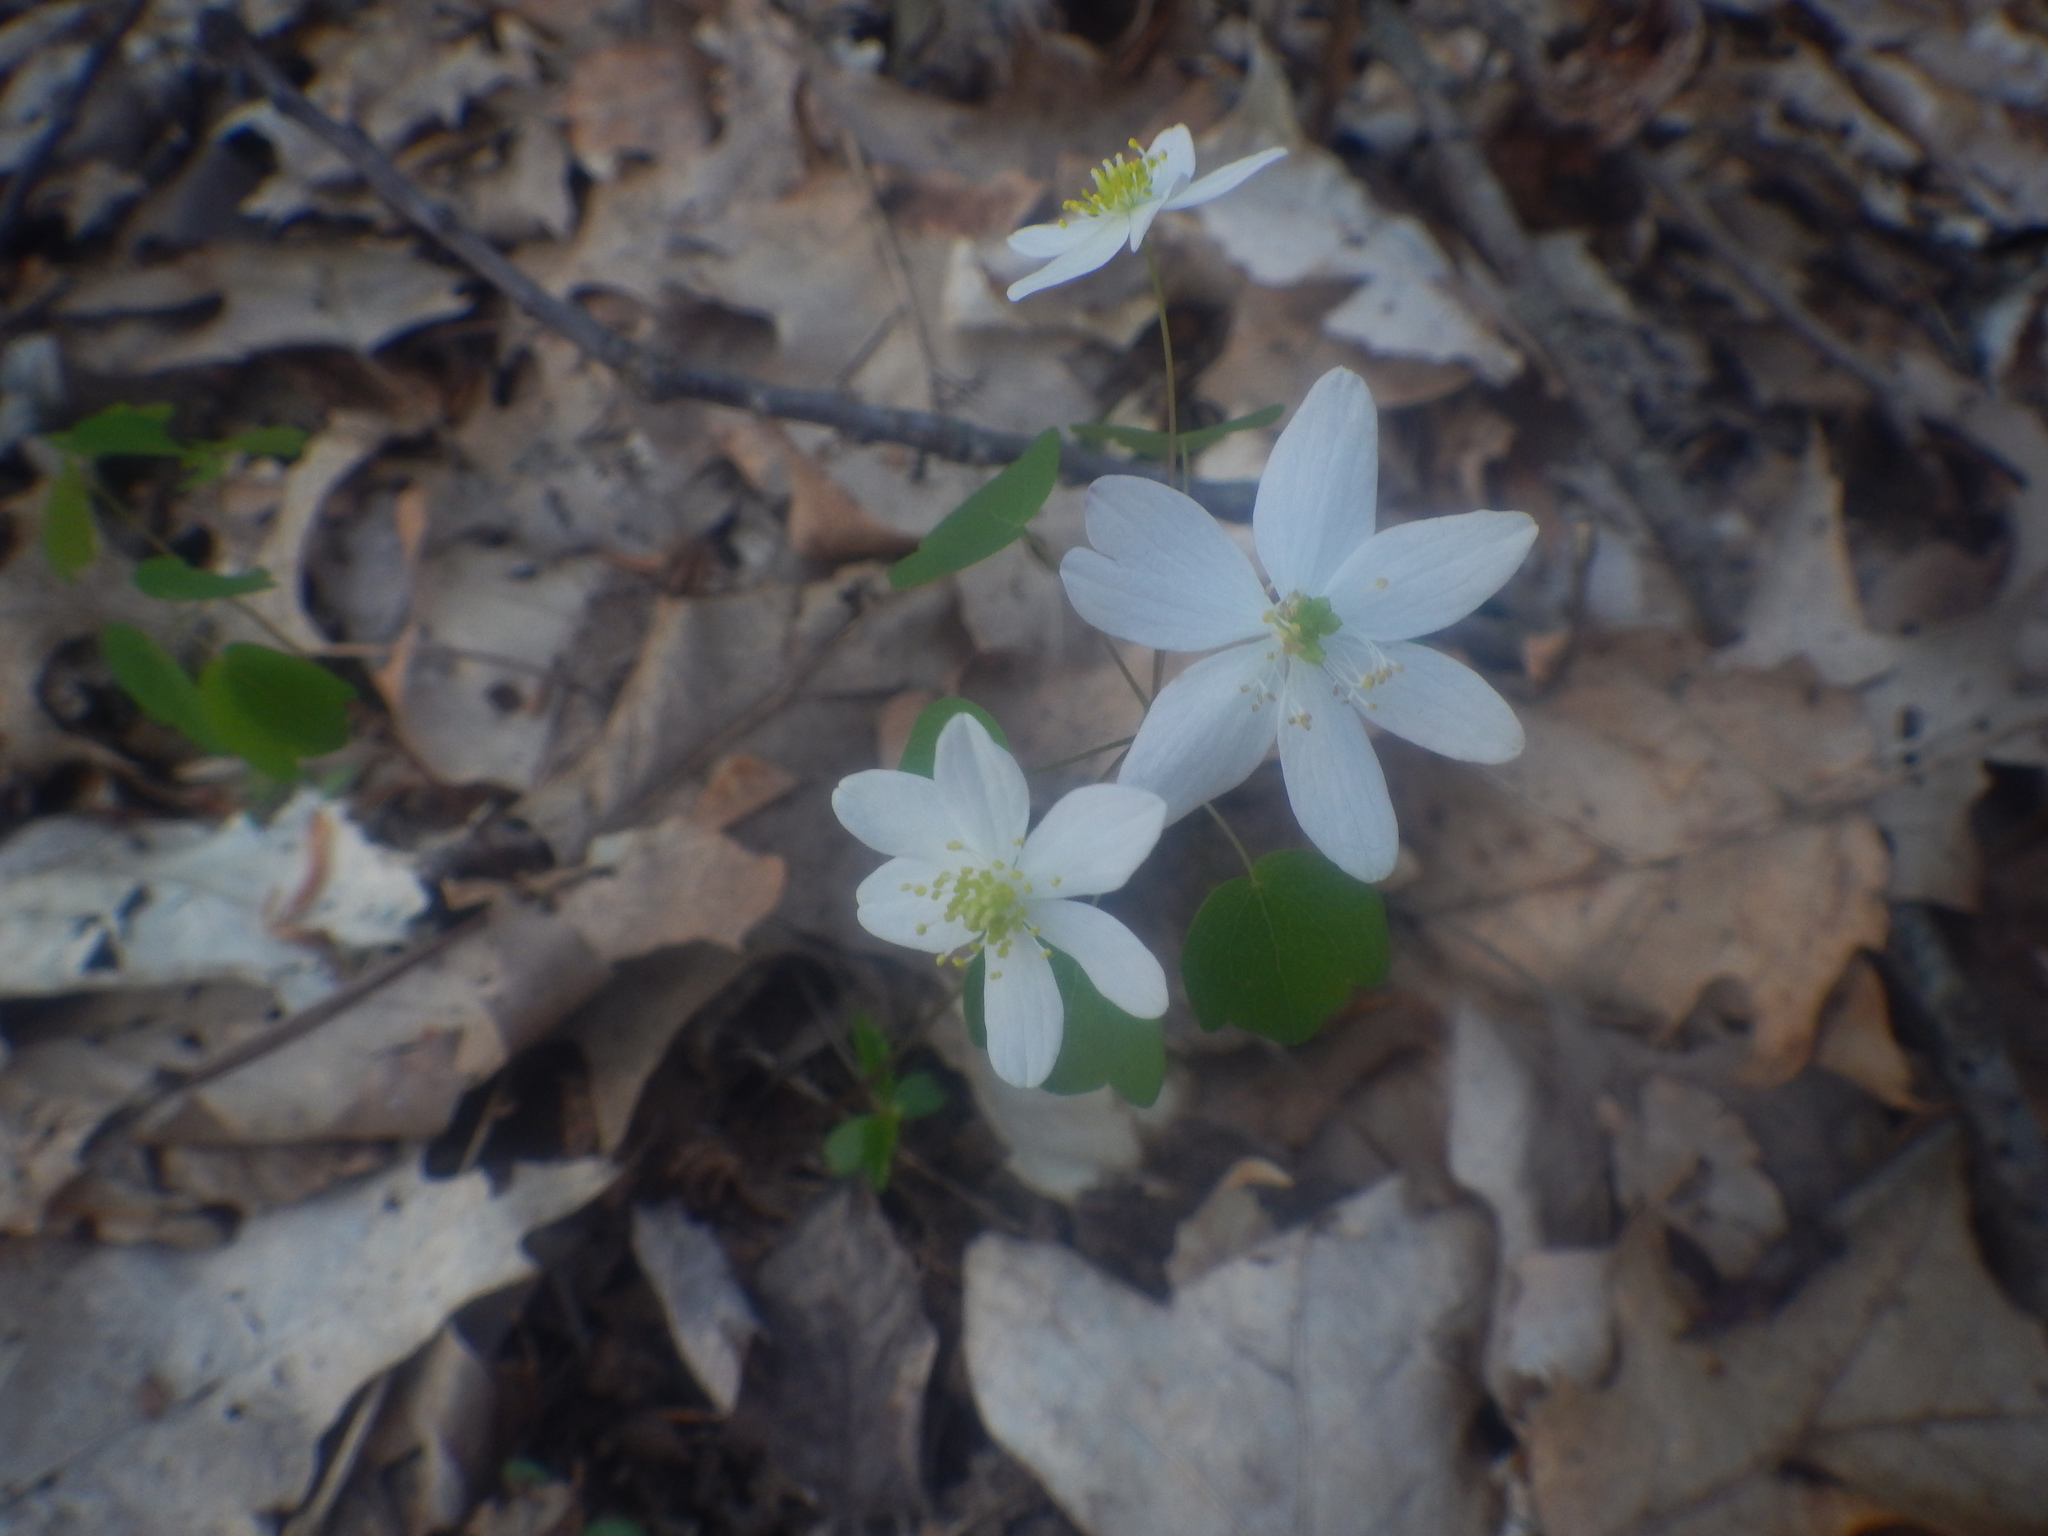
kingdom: Plantae
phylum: Tracheophyta
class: Magnoliopsida
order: Ranunculales
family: Ranunculaceae
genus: Thalictrum
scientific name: Thalictrum thalictroides
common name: Rue-anemone
